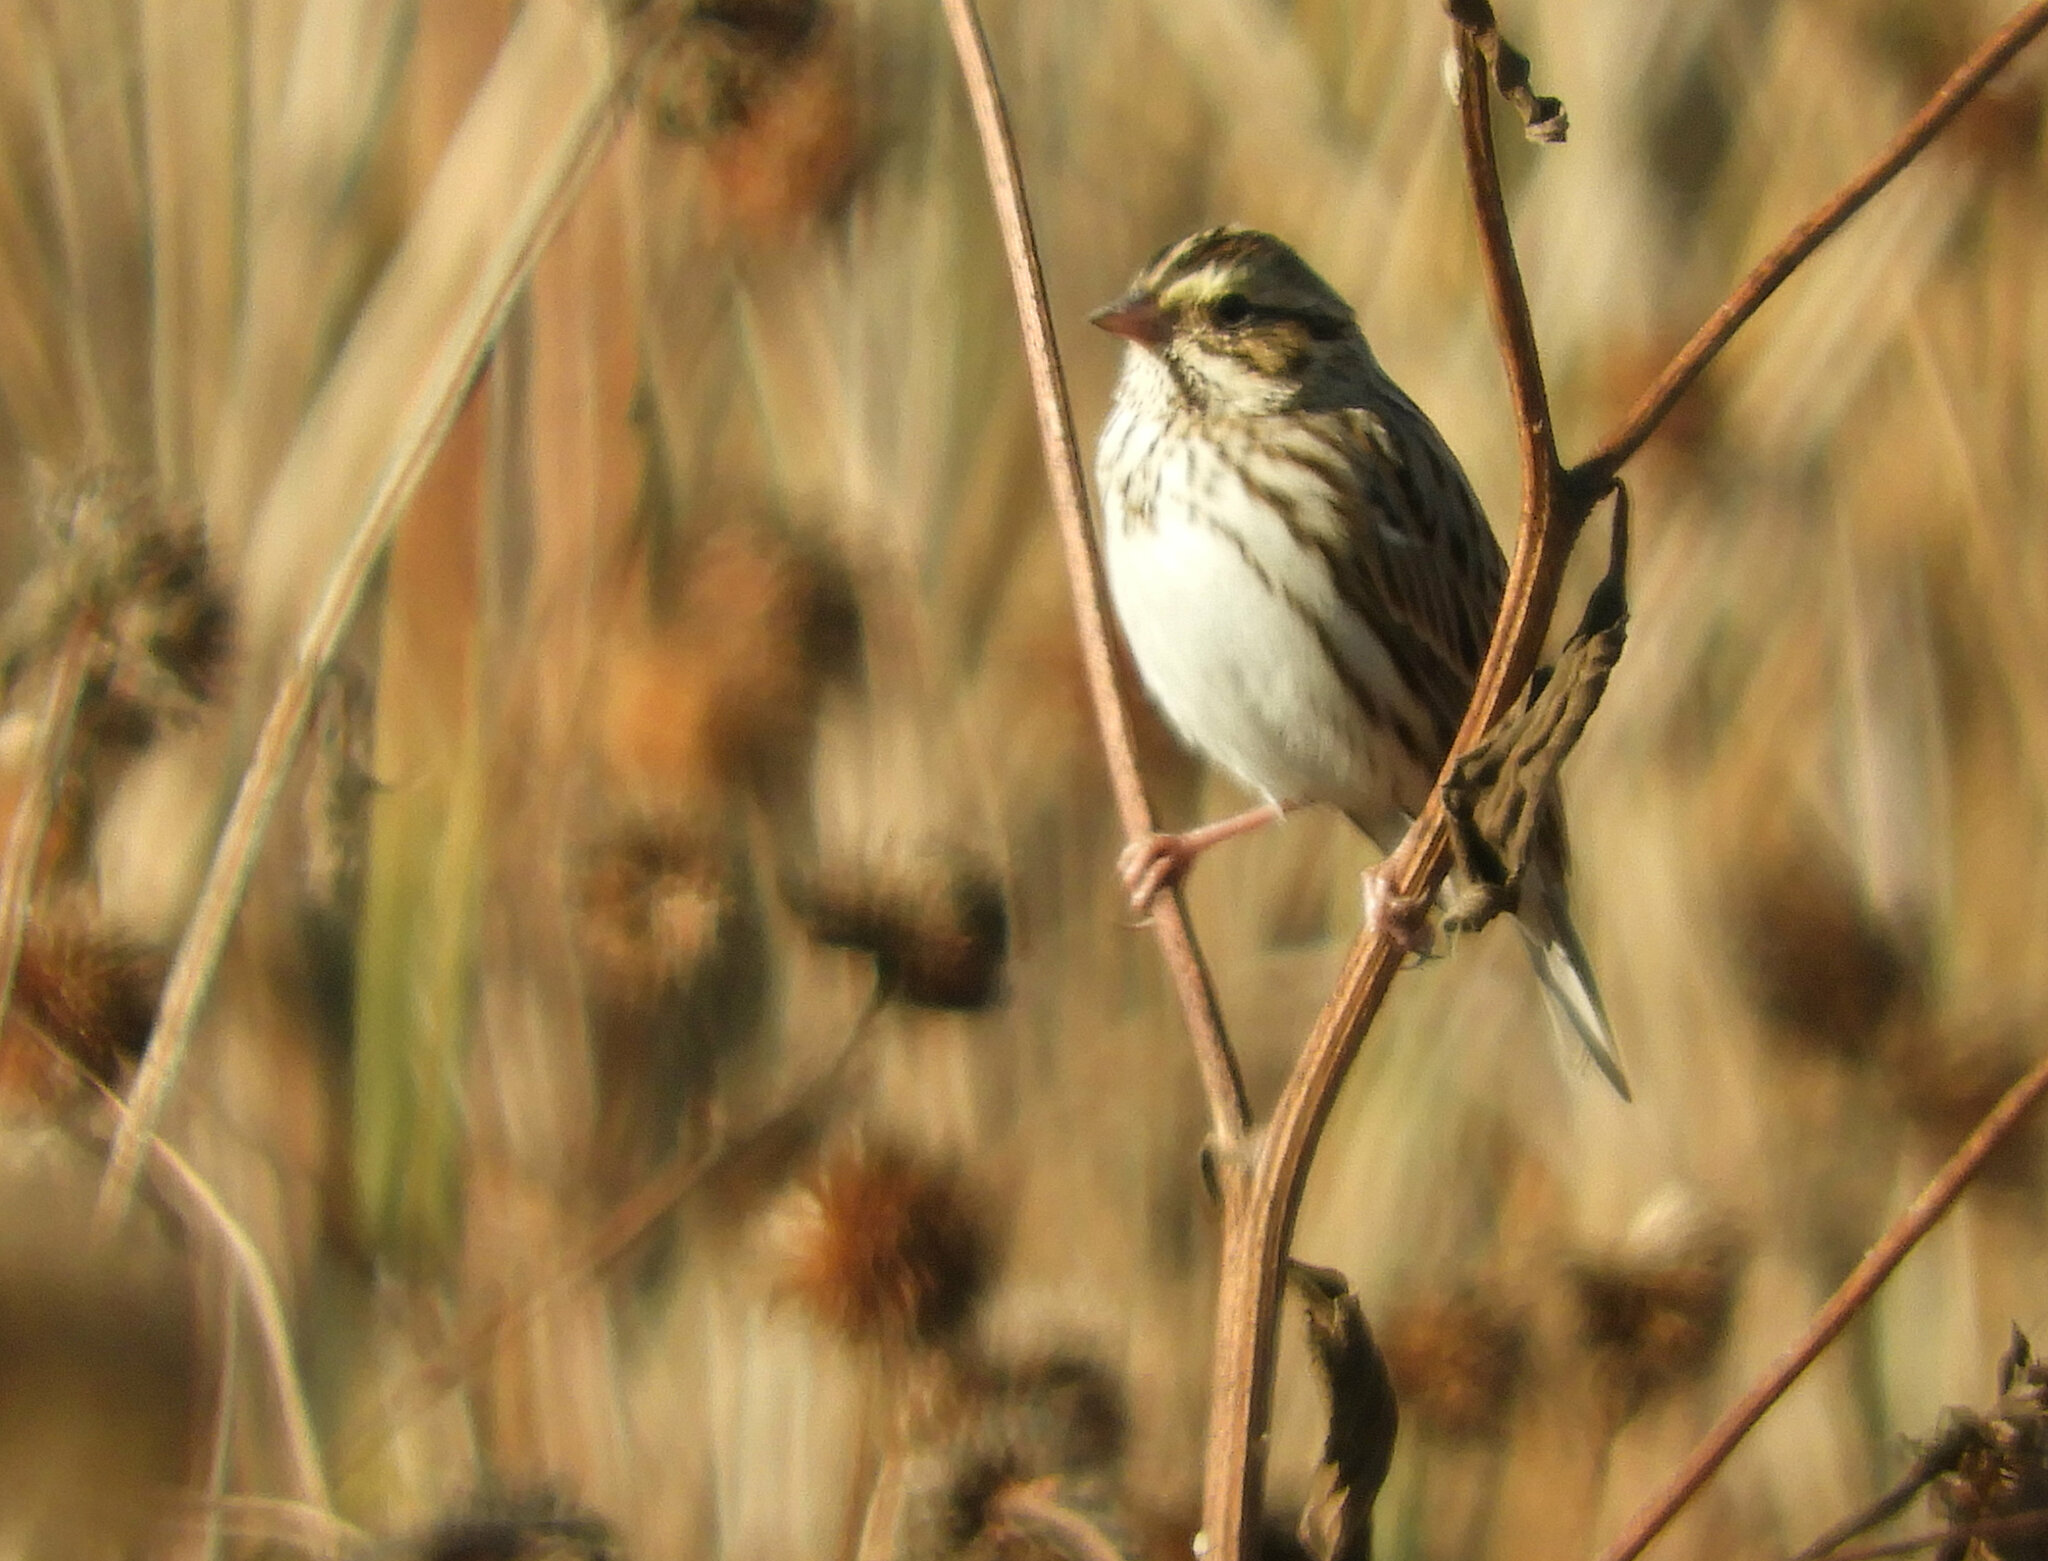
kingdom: Animalia
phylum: Chordata
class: Aves
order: Passeriformes
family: Passerellidae
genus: Passerculus
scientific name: Passerculus sandwichensis
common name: Savannah sparrow
